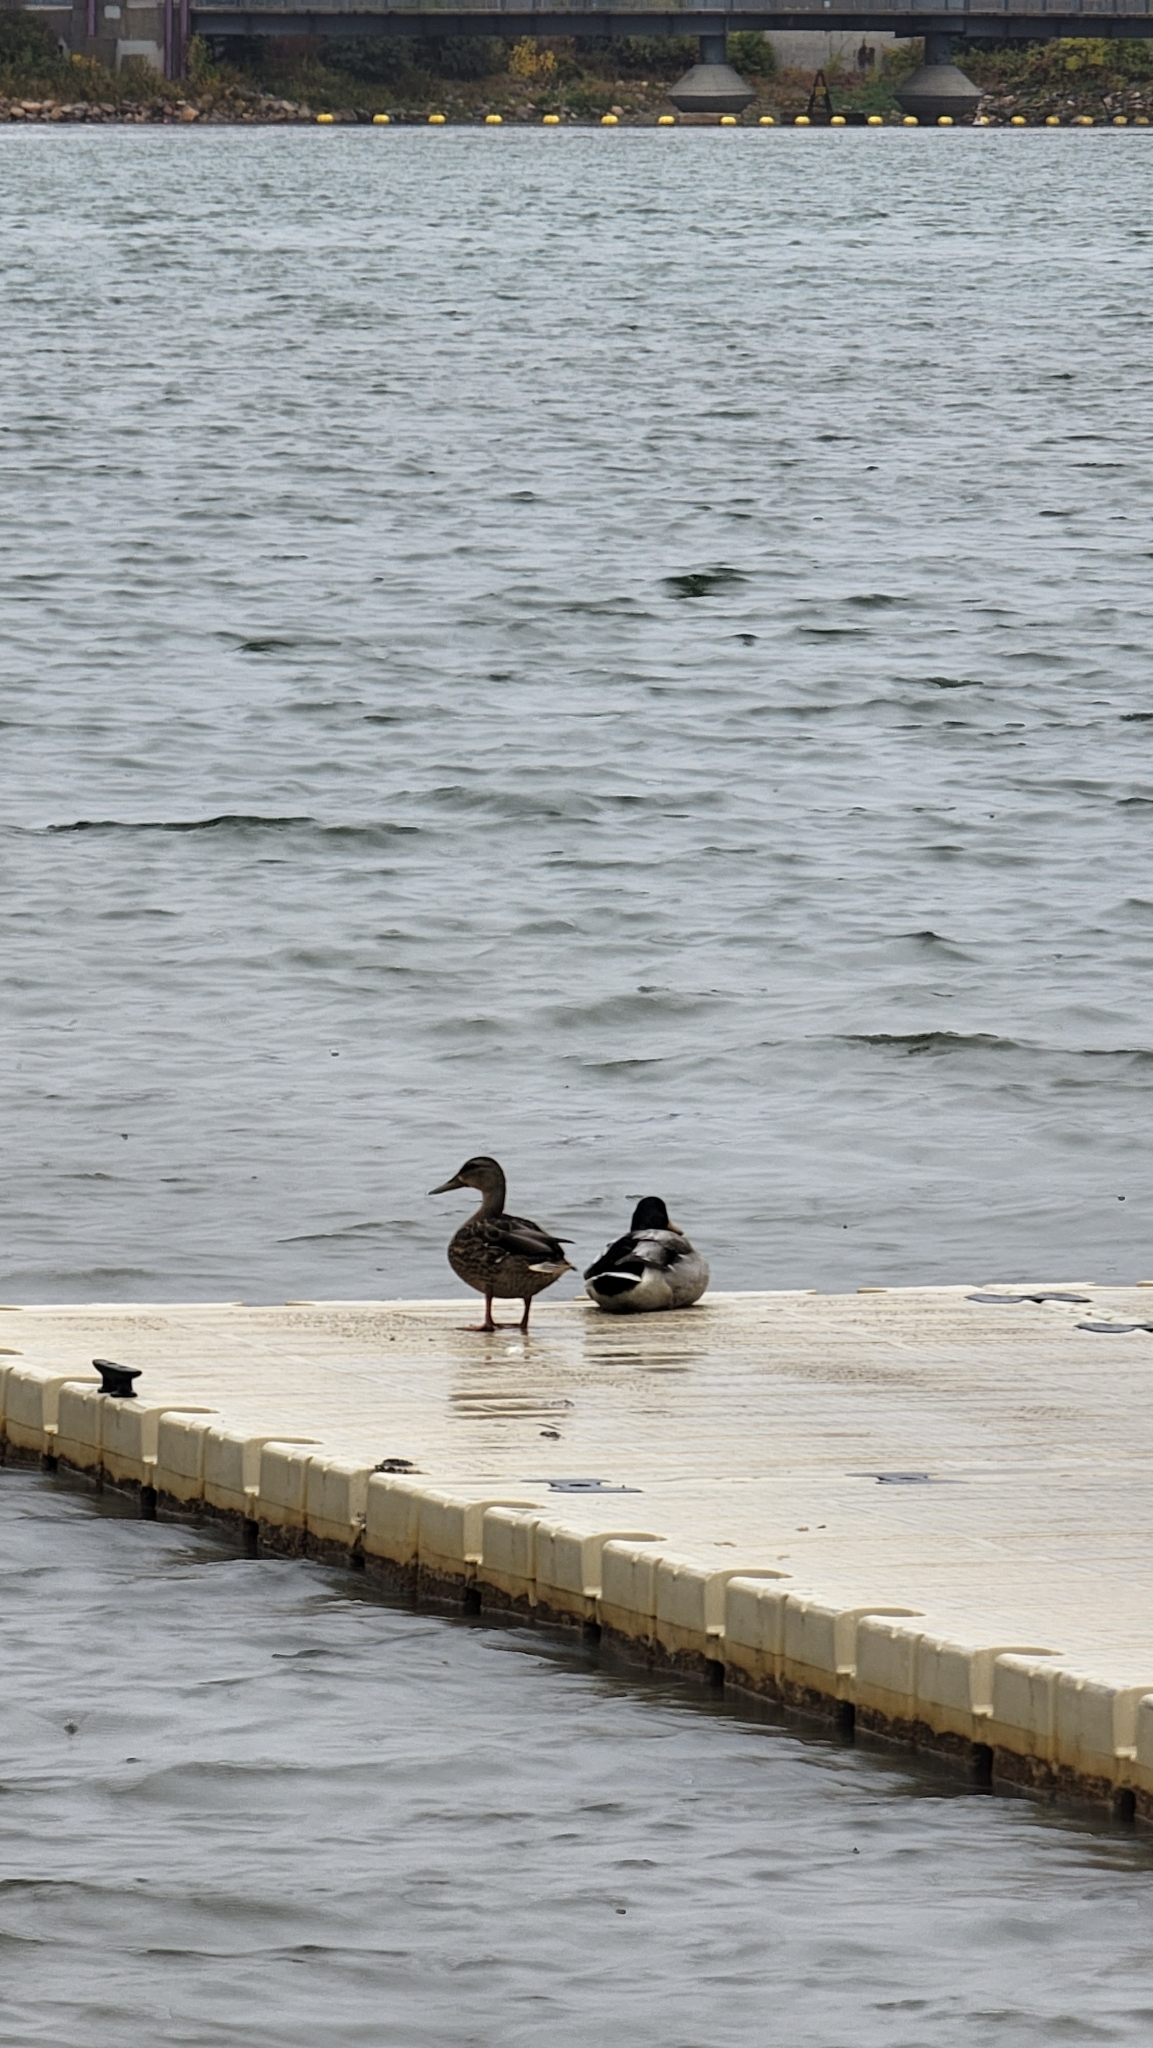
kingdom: Animalia
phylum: Chordata
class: Aves
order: Anseriformes
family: Anatidae
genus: Anas
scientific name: Anas platyrhynchos
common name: Mallard
